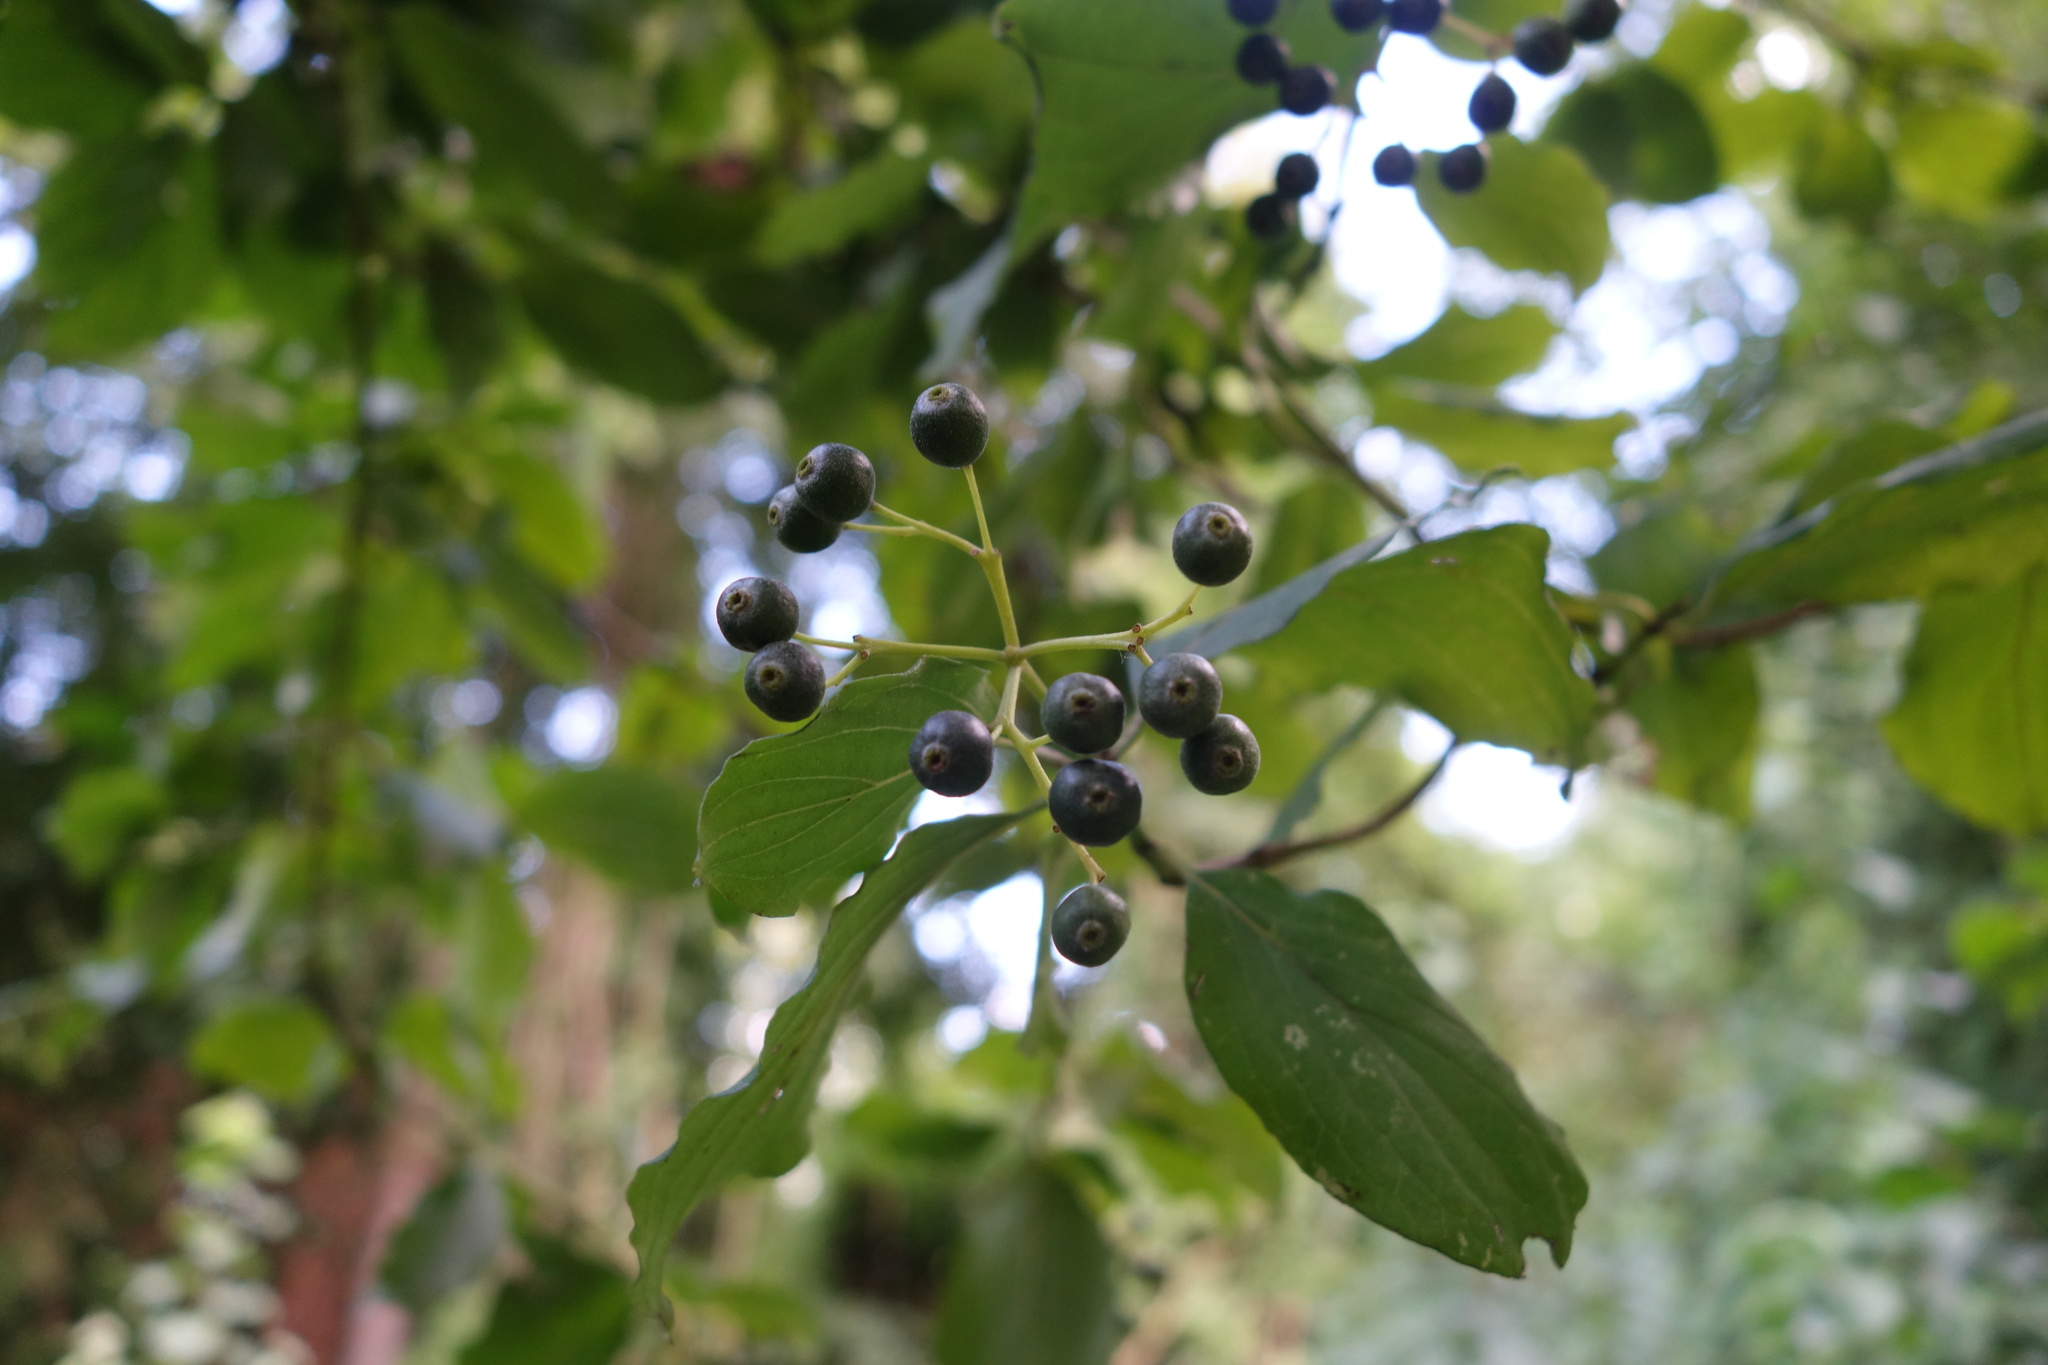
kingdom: Plantae
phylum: Tracheophyta
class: Magnoliopsida
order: Cornales
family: Cornaceae
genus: Cornus
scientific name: Cornus sanguinea
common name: Dogwood
